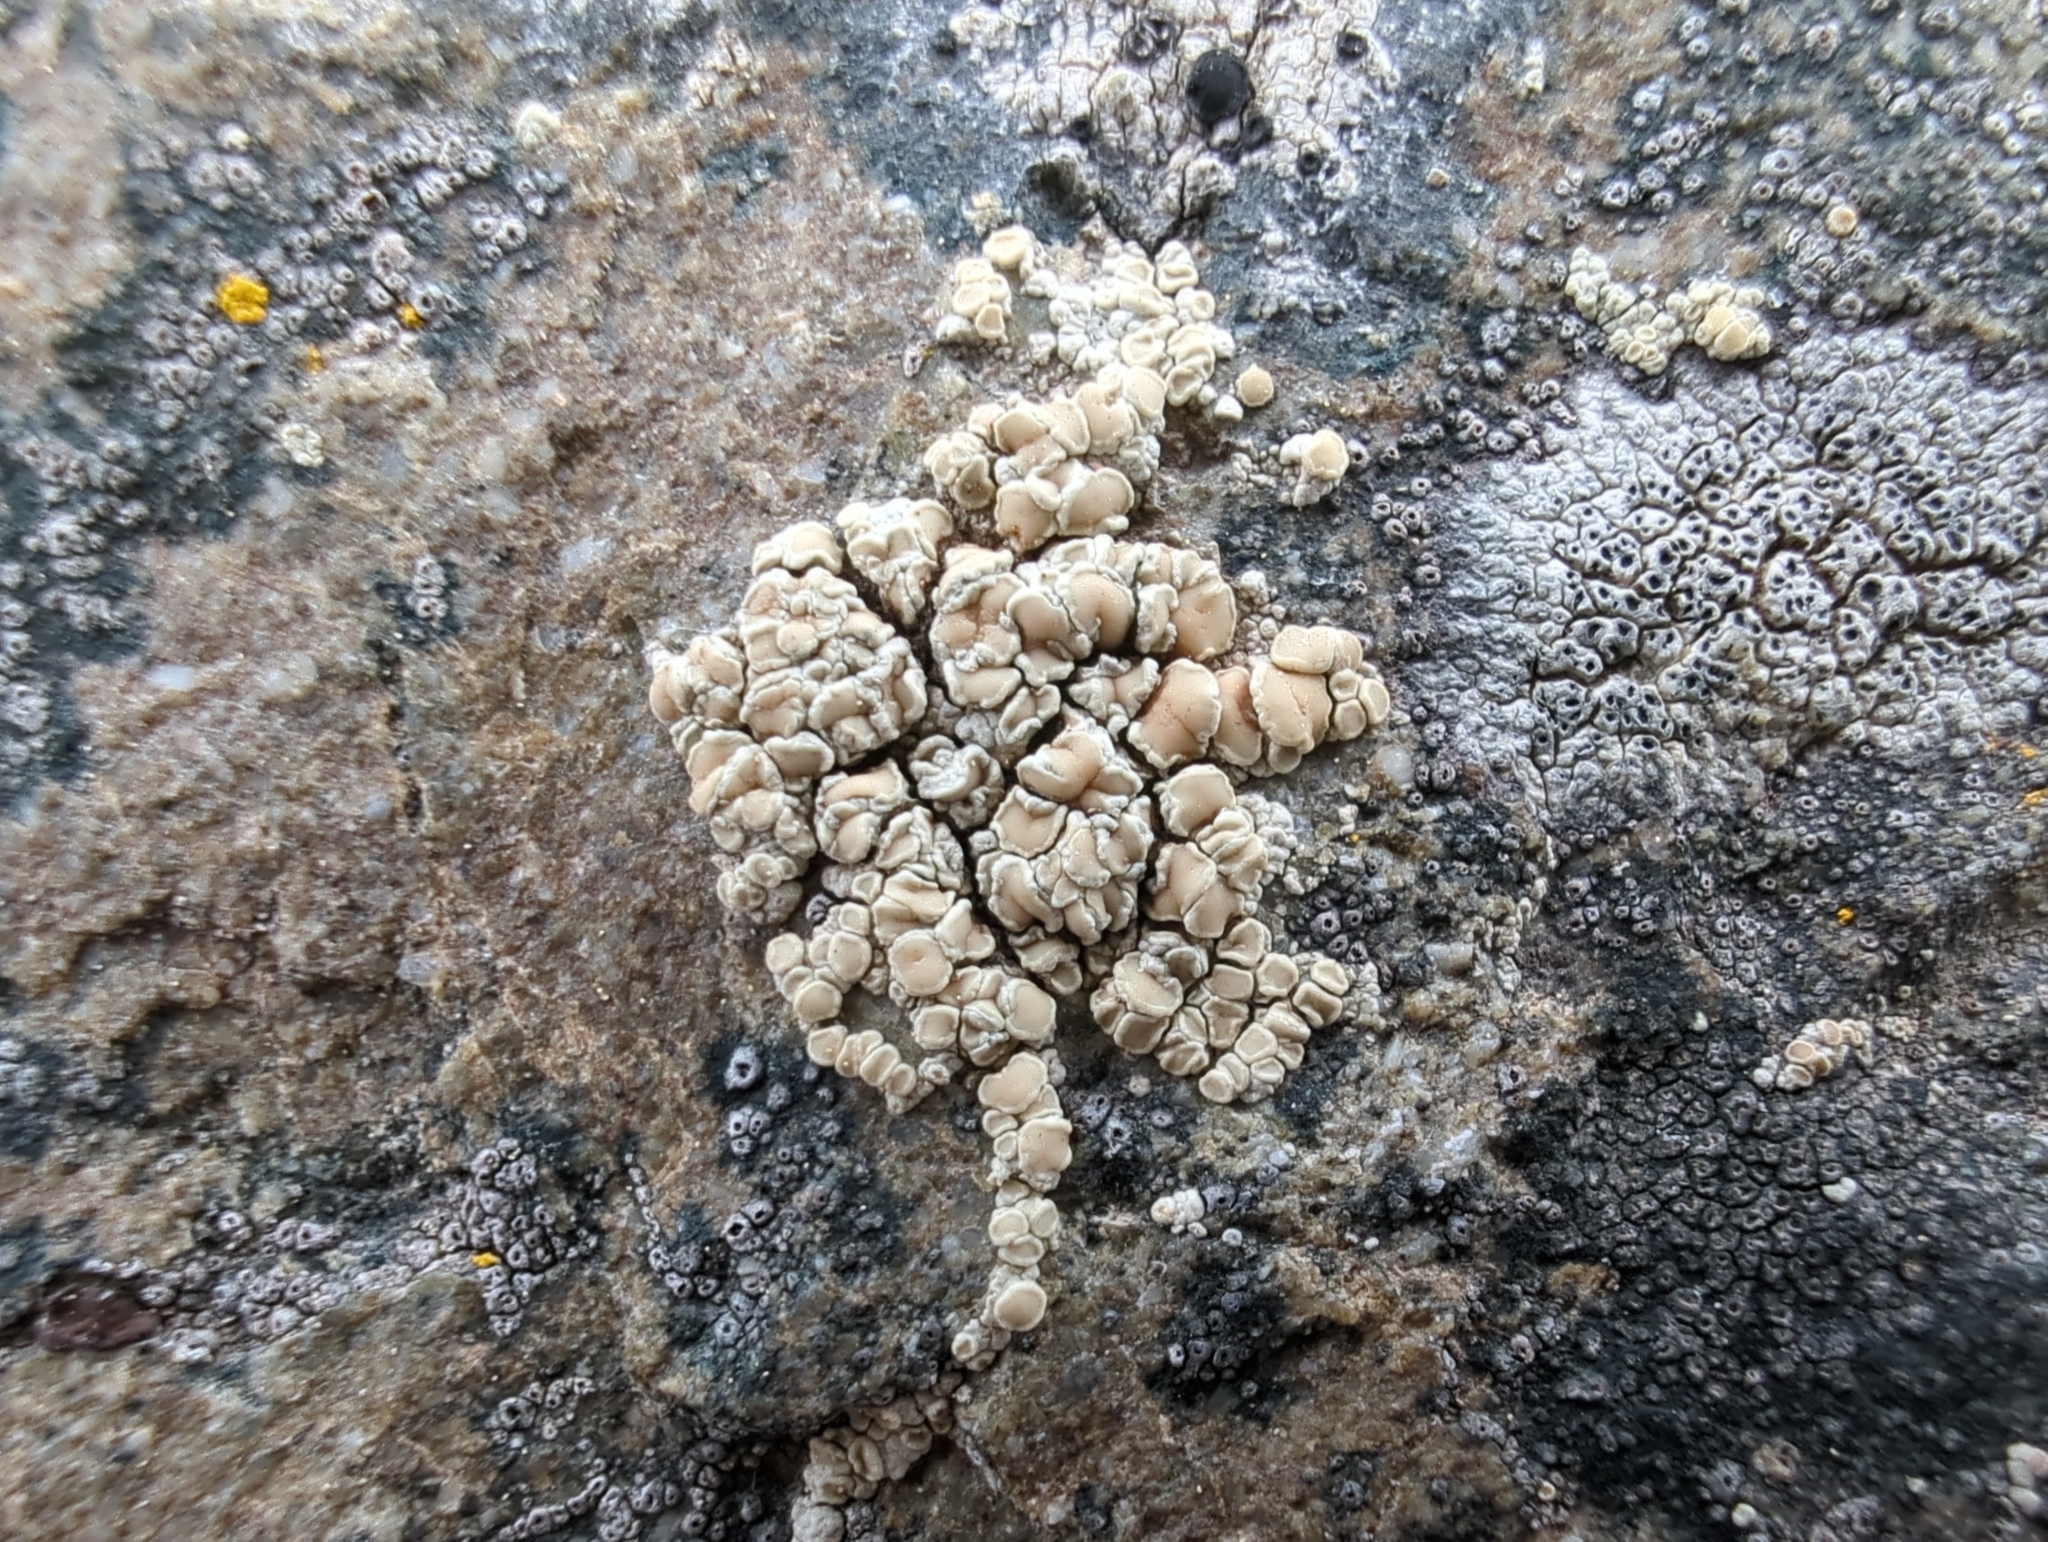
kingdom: Fungi
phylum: Ascomycota
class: Lecanoromycetes
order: Lecanorales
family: Lecanoraceae
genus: Lecanora
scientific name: Lecanora polytropa
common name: Granite-speck rim lichen
